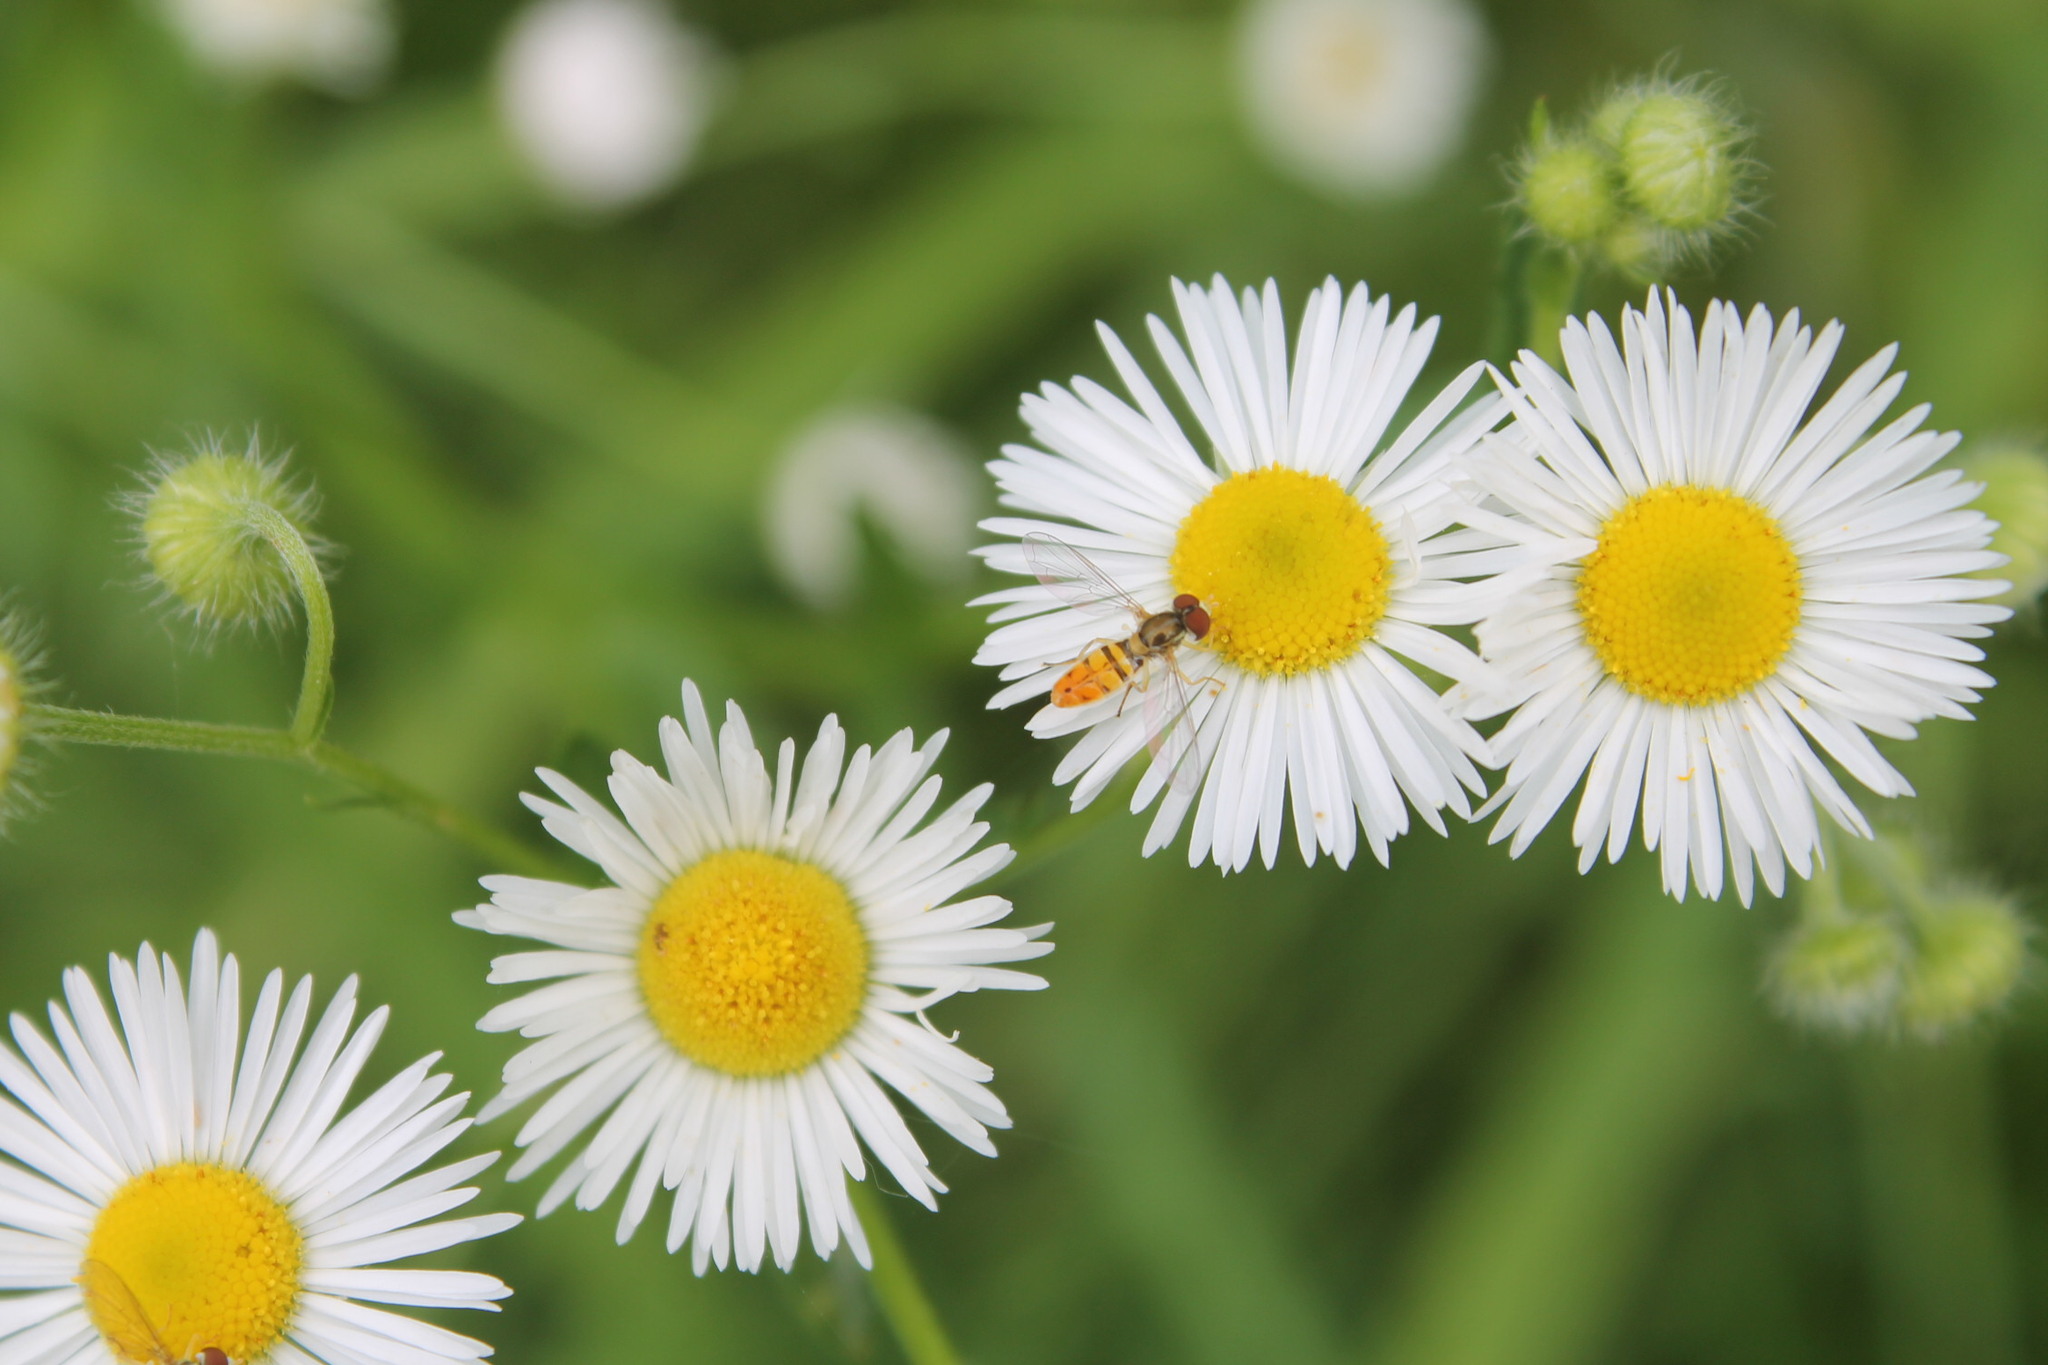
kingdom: Animalia
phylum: Arthropoda
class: Insecta
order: Diptera
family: Syrphidae
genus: Toxomerus
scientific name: Toxomerus marginatus
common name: Syrphid fly
